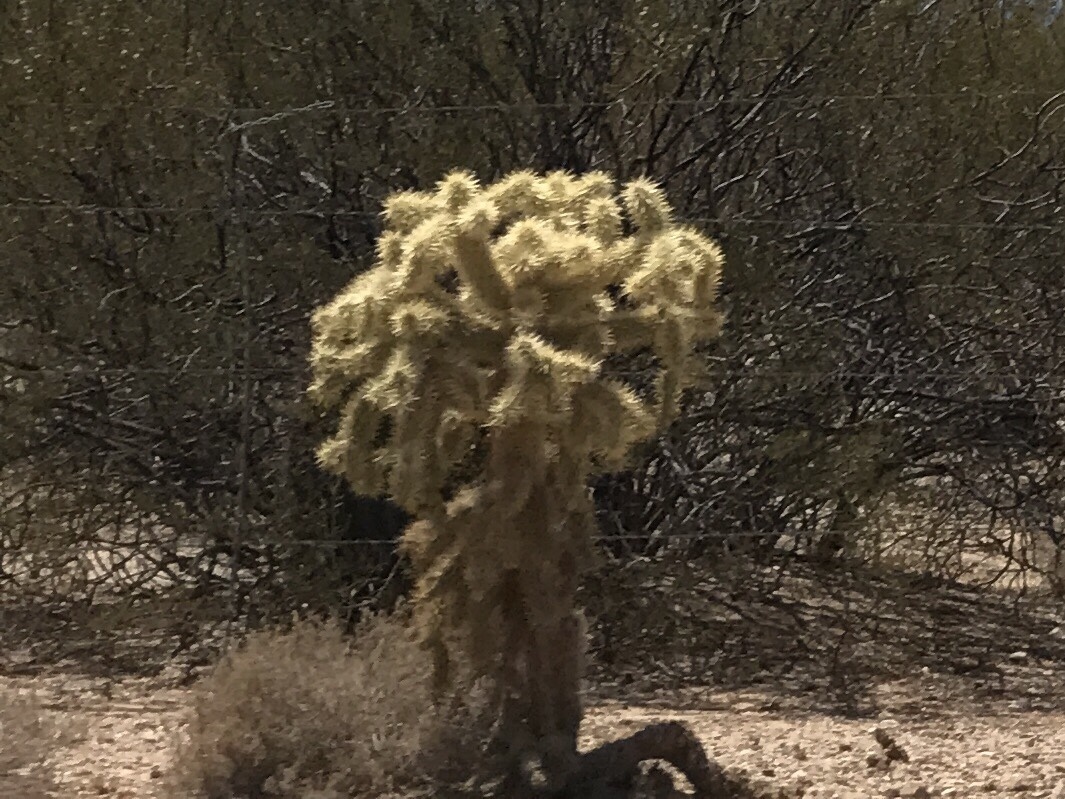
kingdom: Plantae
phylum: Tracheophyta
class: Magnoliopsida
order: Caryophyllales
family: Cactaceae
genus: Cylindropuntia
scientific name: Cylindropuntia fulgida
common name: Jumping cholla
